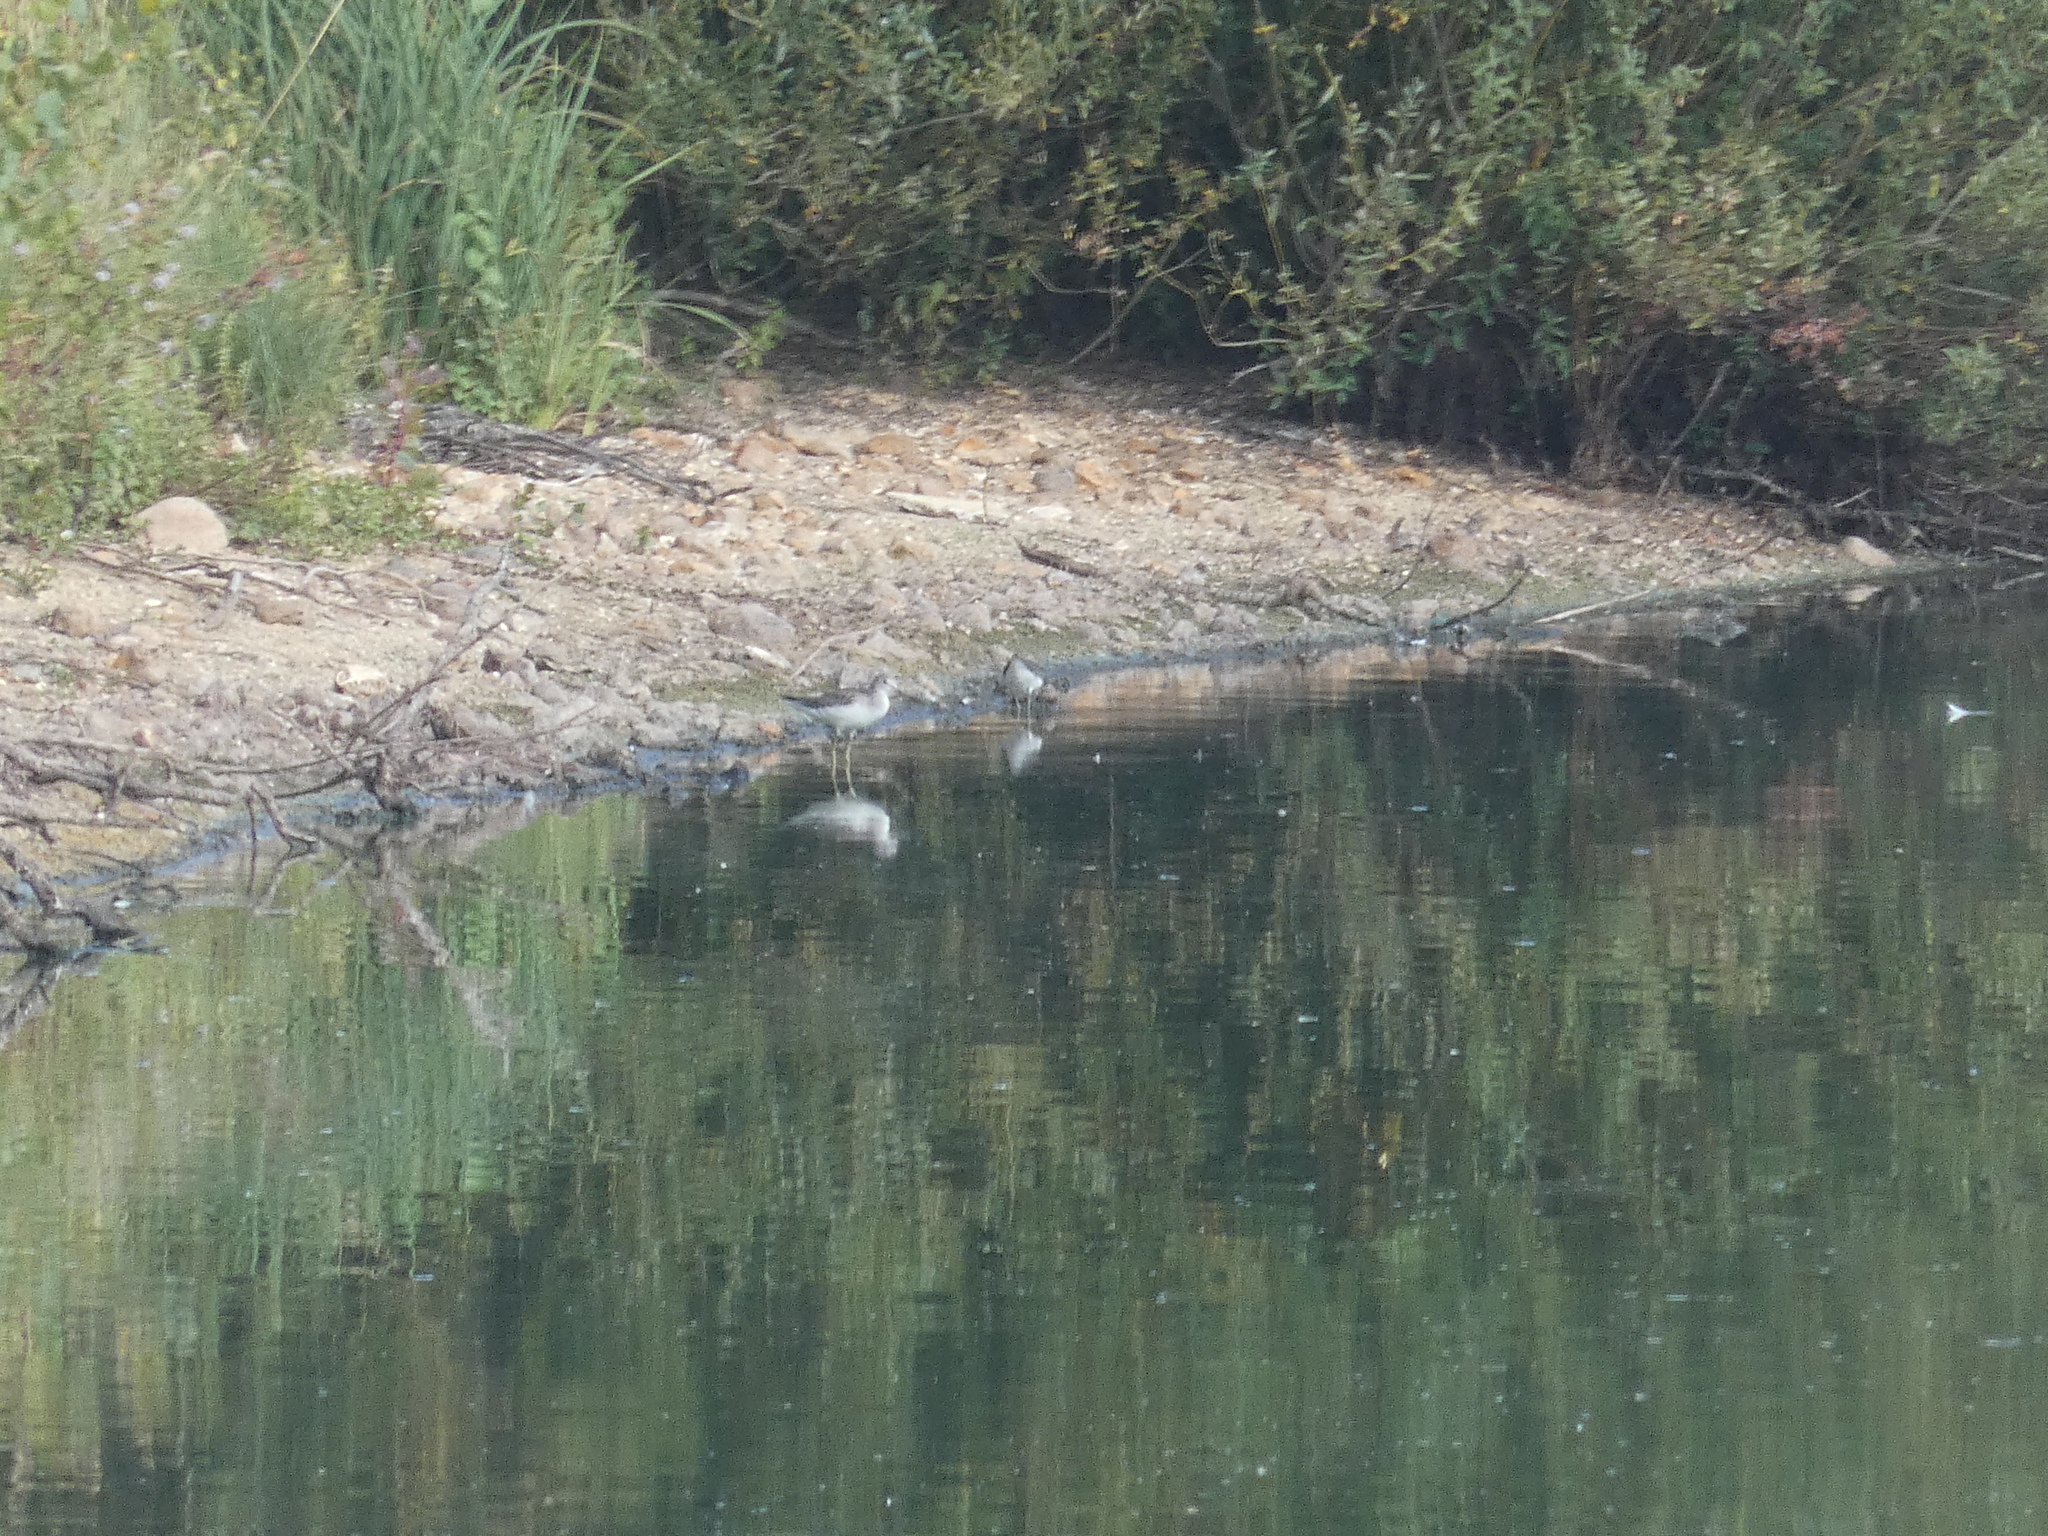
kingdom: Animalia
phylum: Chordata
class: Aves
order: Charadriiformes
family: Scolopacidae
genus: Tringa
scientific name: Tringa nebularia
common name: Common greenshank
